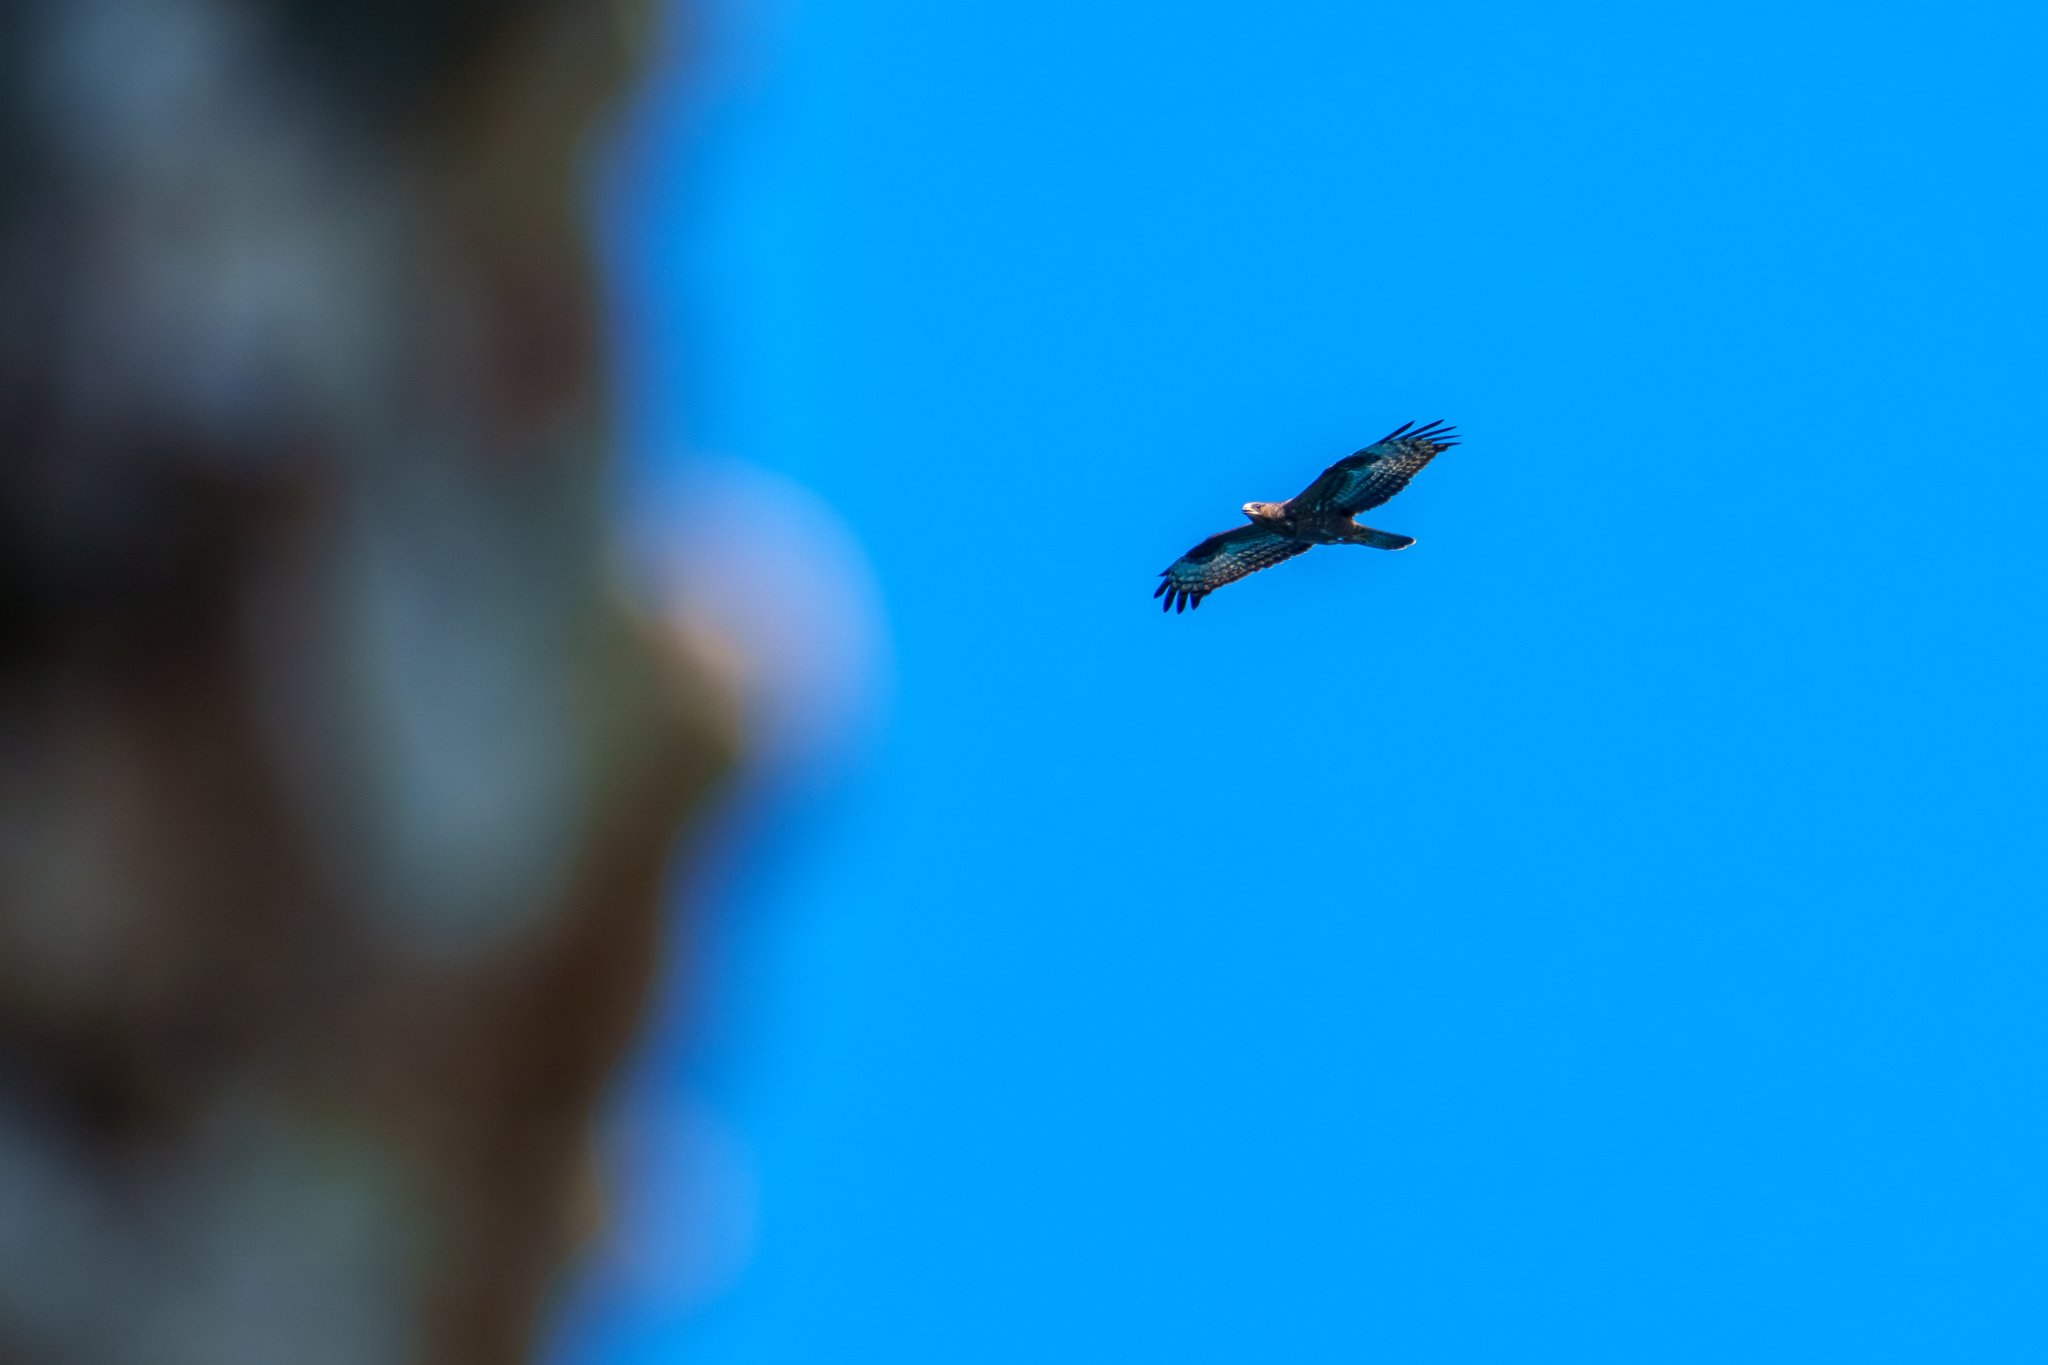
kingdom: Animalia
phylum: Chordata
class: Aves
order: Accipitriformes
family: Accipitridae
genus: Pernis
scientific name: Pernis apivorus
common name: European honey buzzard
